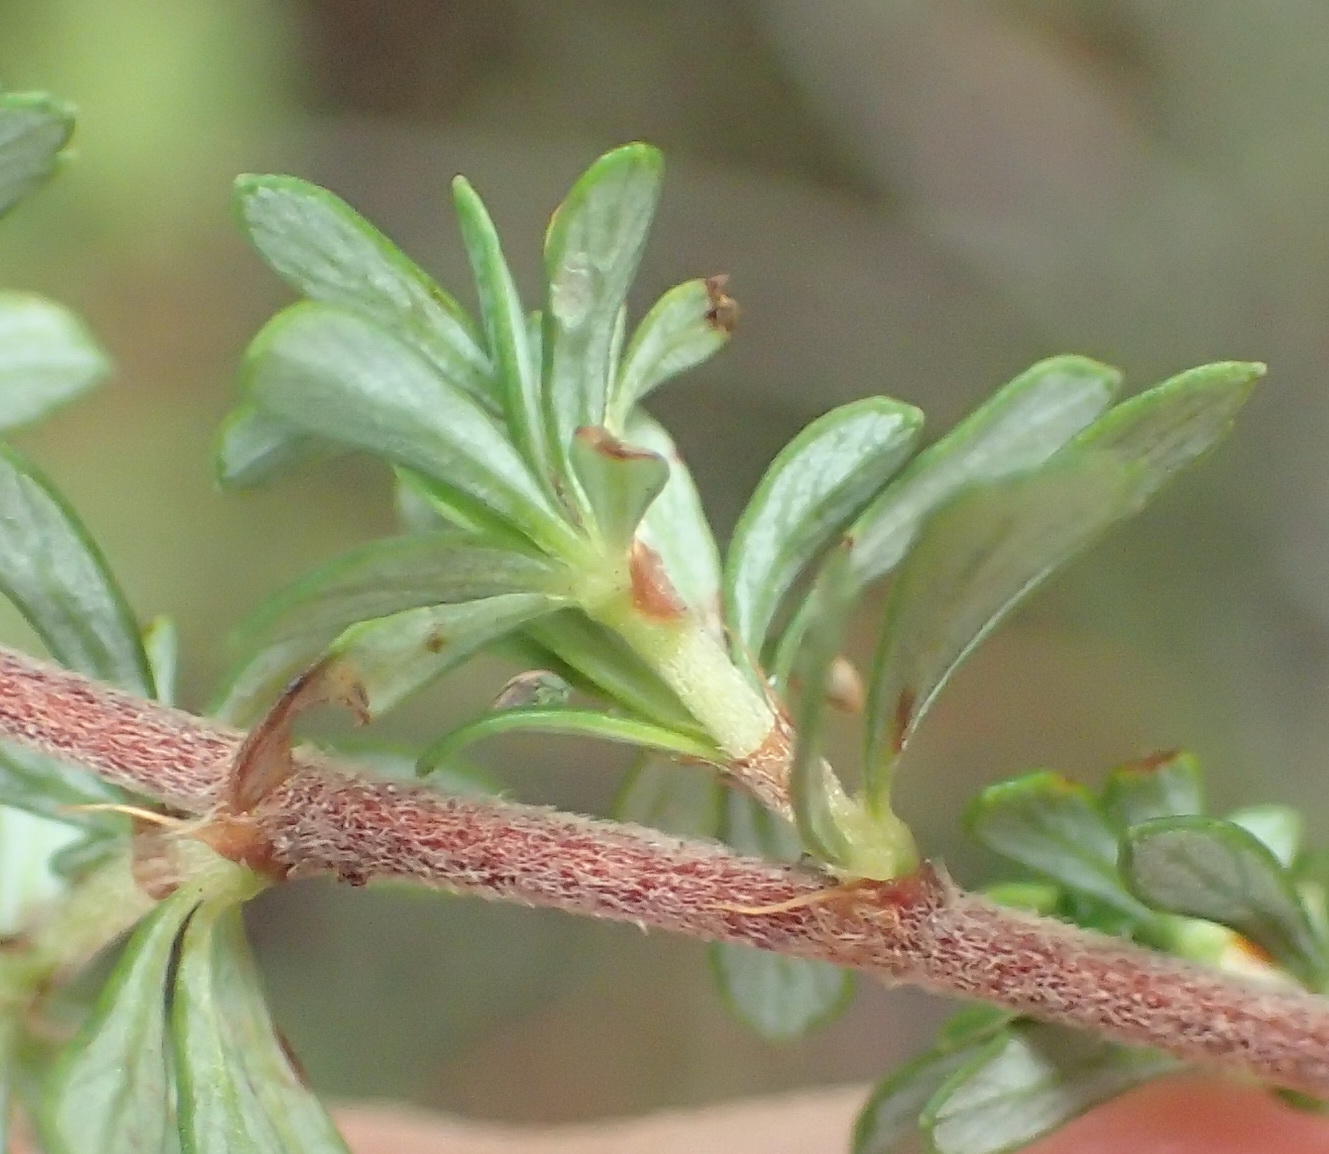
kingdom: Plantae
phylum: Tracheophyta
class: Magnoliopsida
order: Rosales
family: Rosaceae
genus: Cliffortia
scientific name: Cliffortia serpyllifolia
